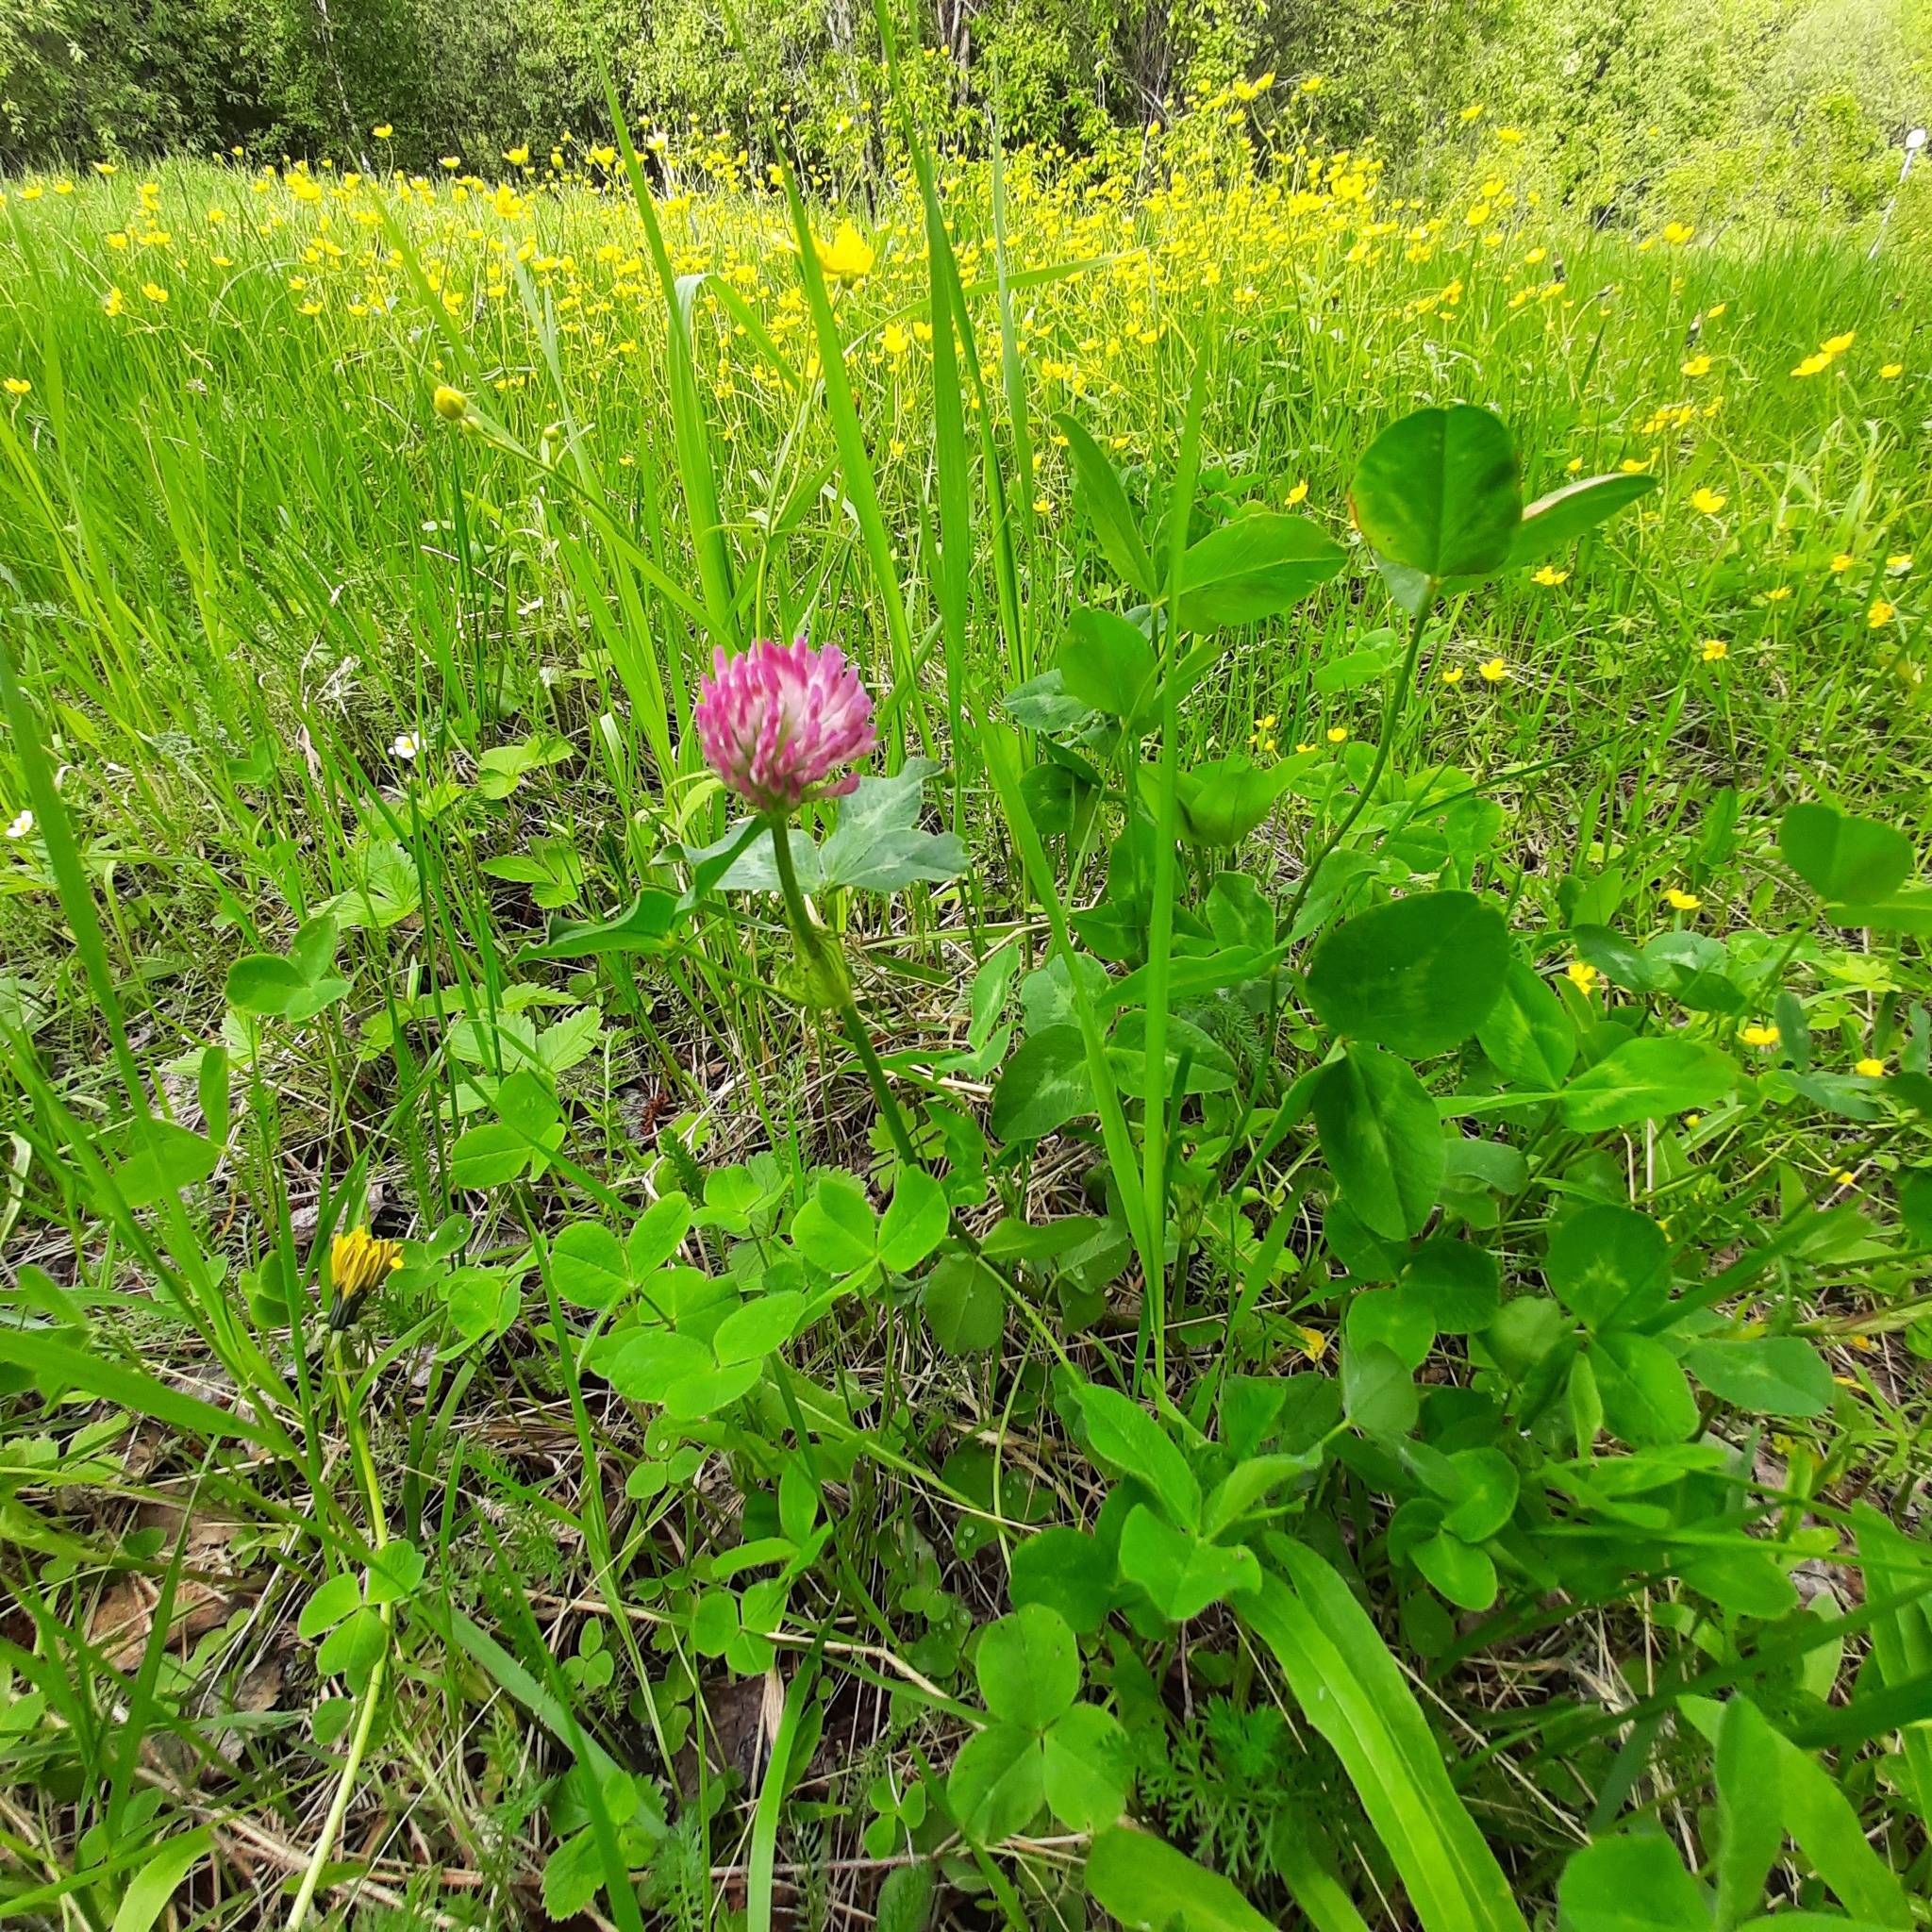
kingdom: Plantae
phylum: Tracheophyta
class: Magnoliopsida
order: Fabales
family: Fabaceae
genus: Trifolium
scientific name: Trifolium pratense
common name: Red clover
